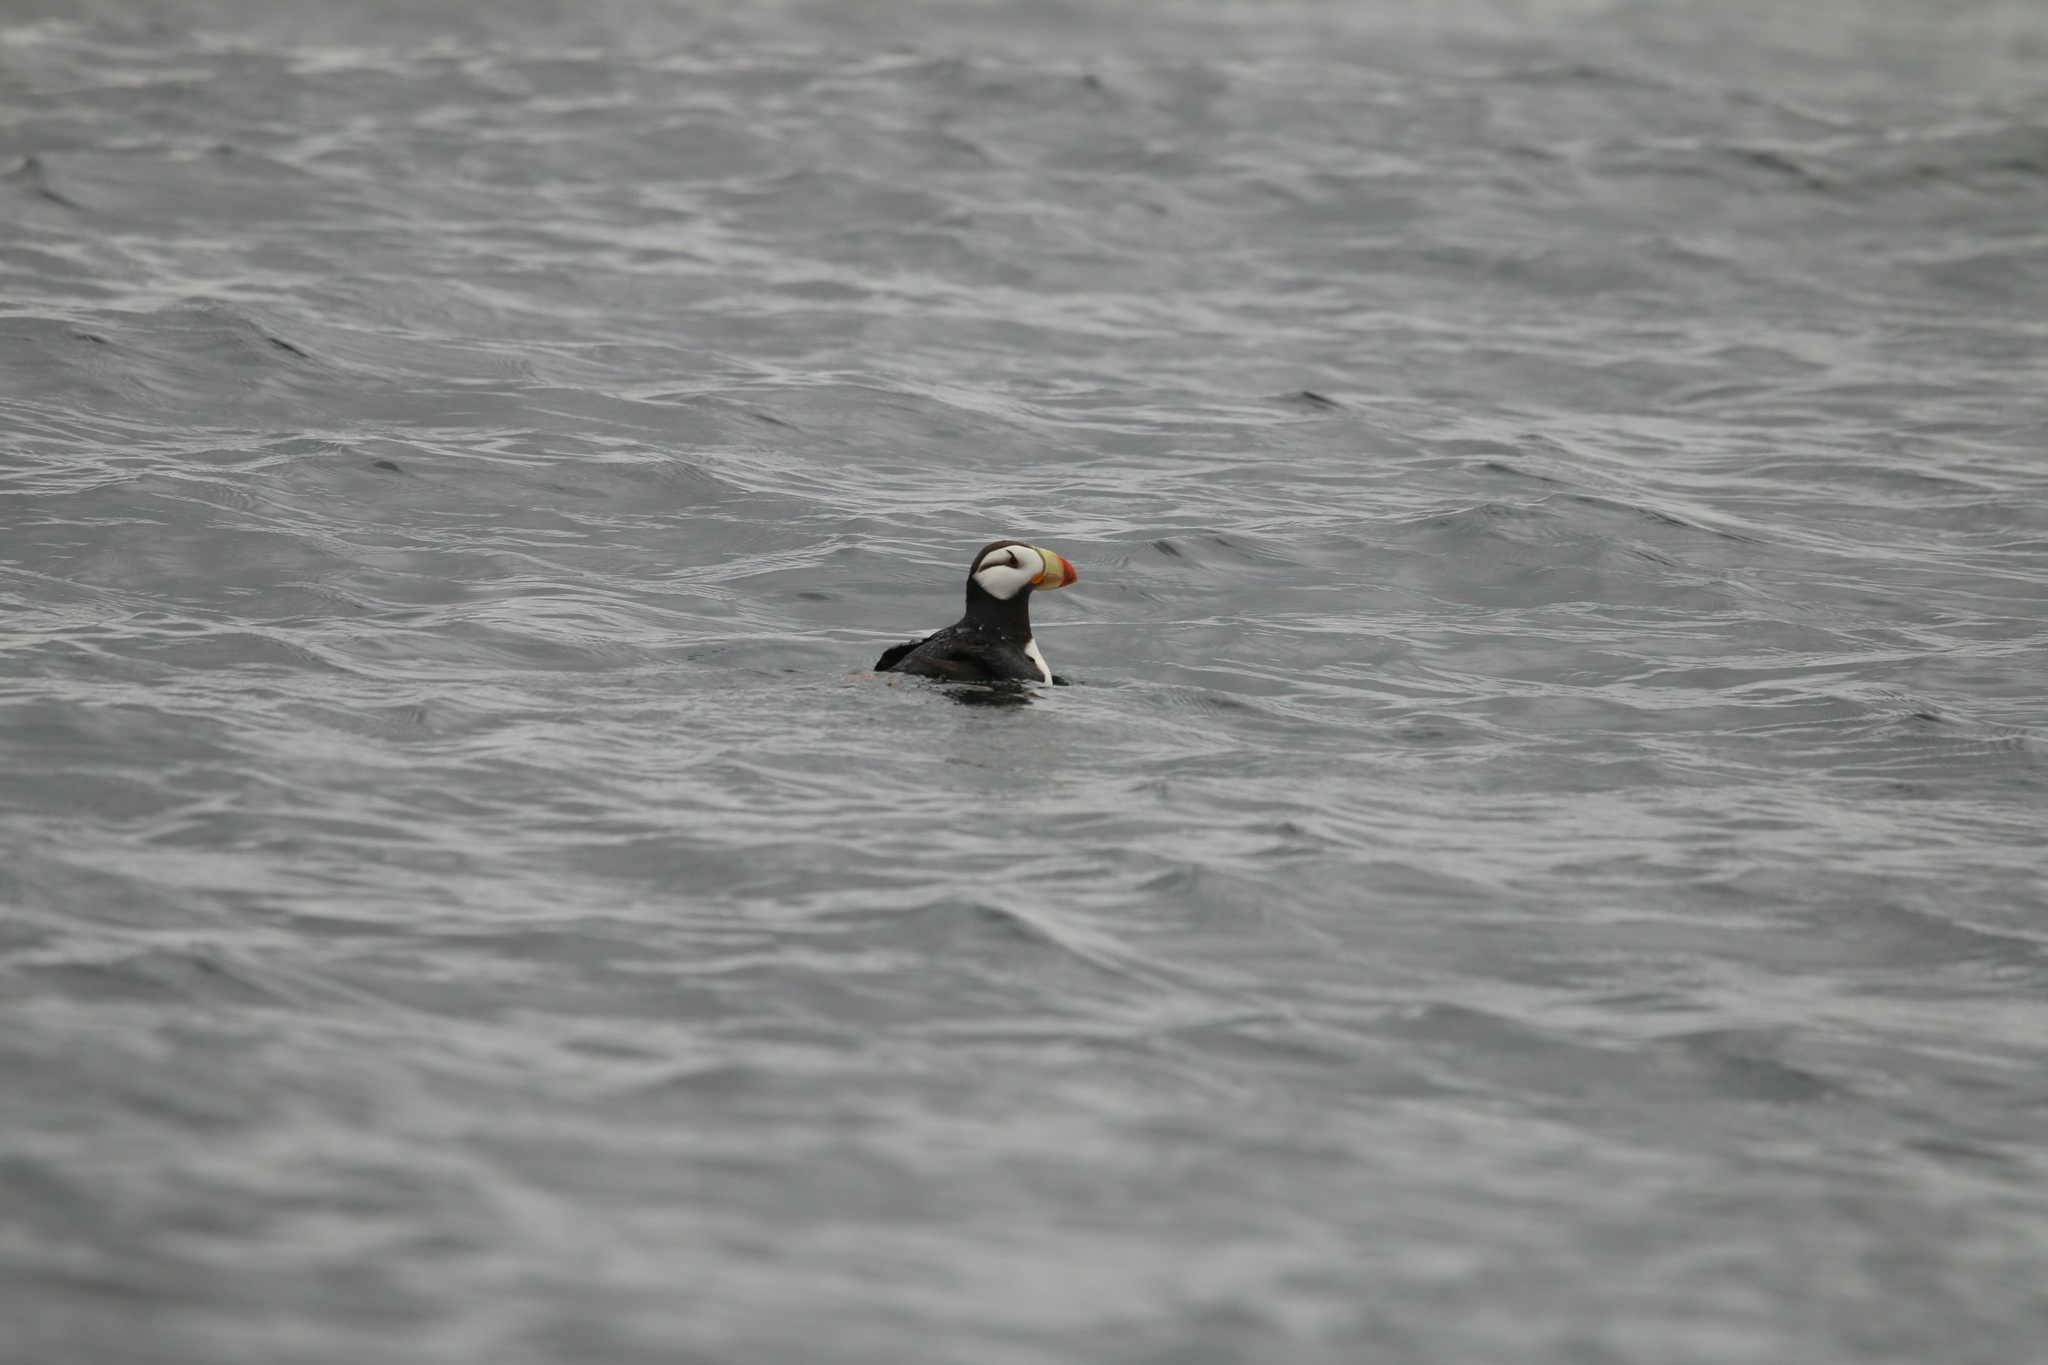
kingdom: Animalia
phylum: Chordata
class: Aves
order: Charadriiformes
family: Alcidae
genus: Fratercula
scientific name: Fratercula corniculata
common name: Horned puffin
